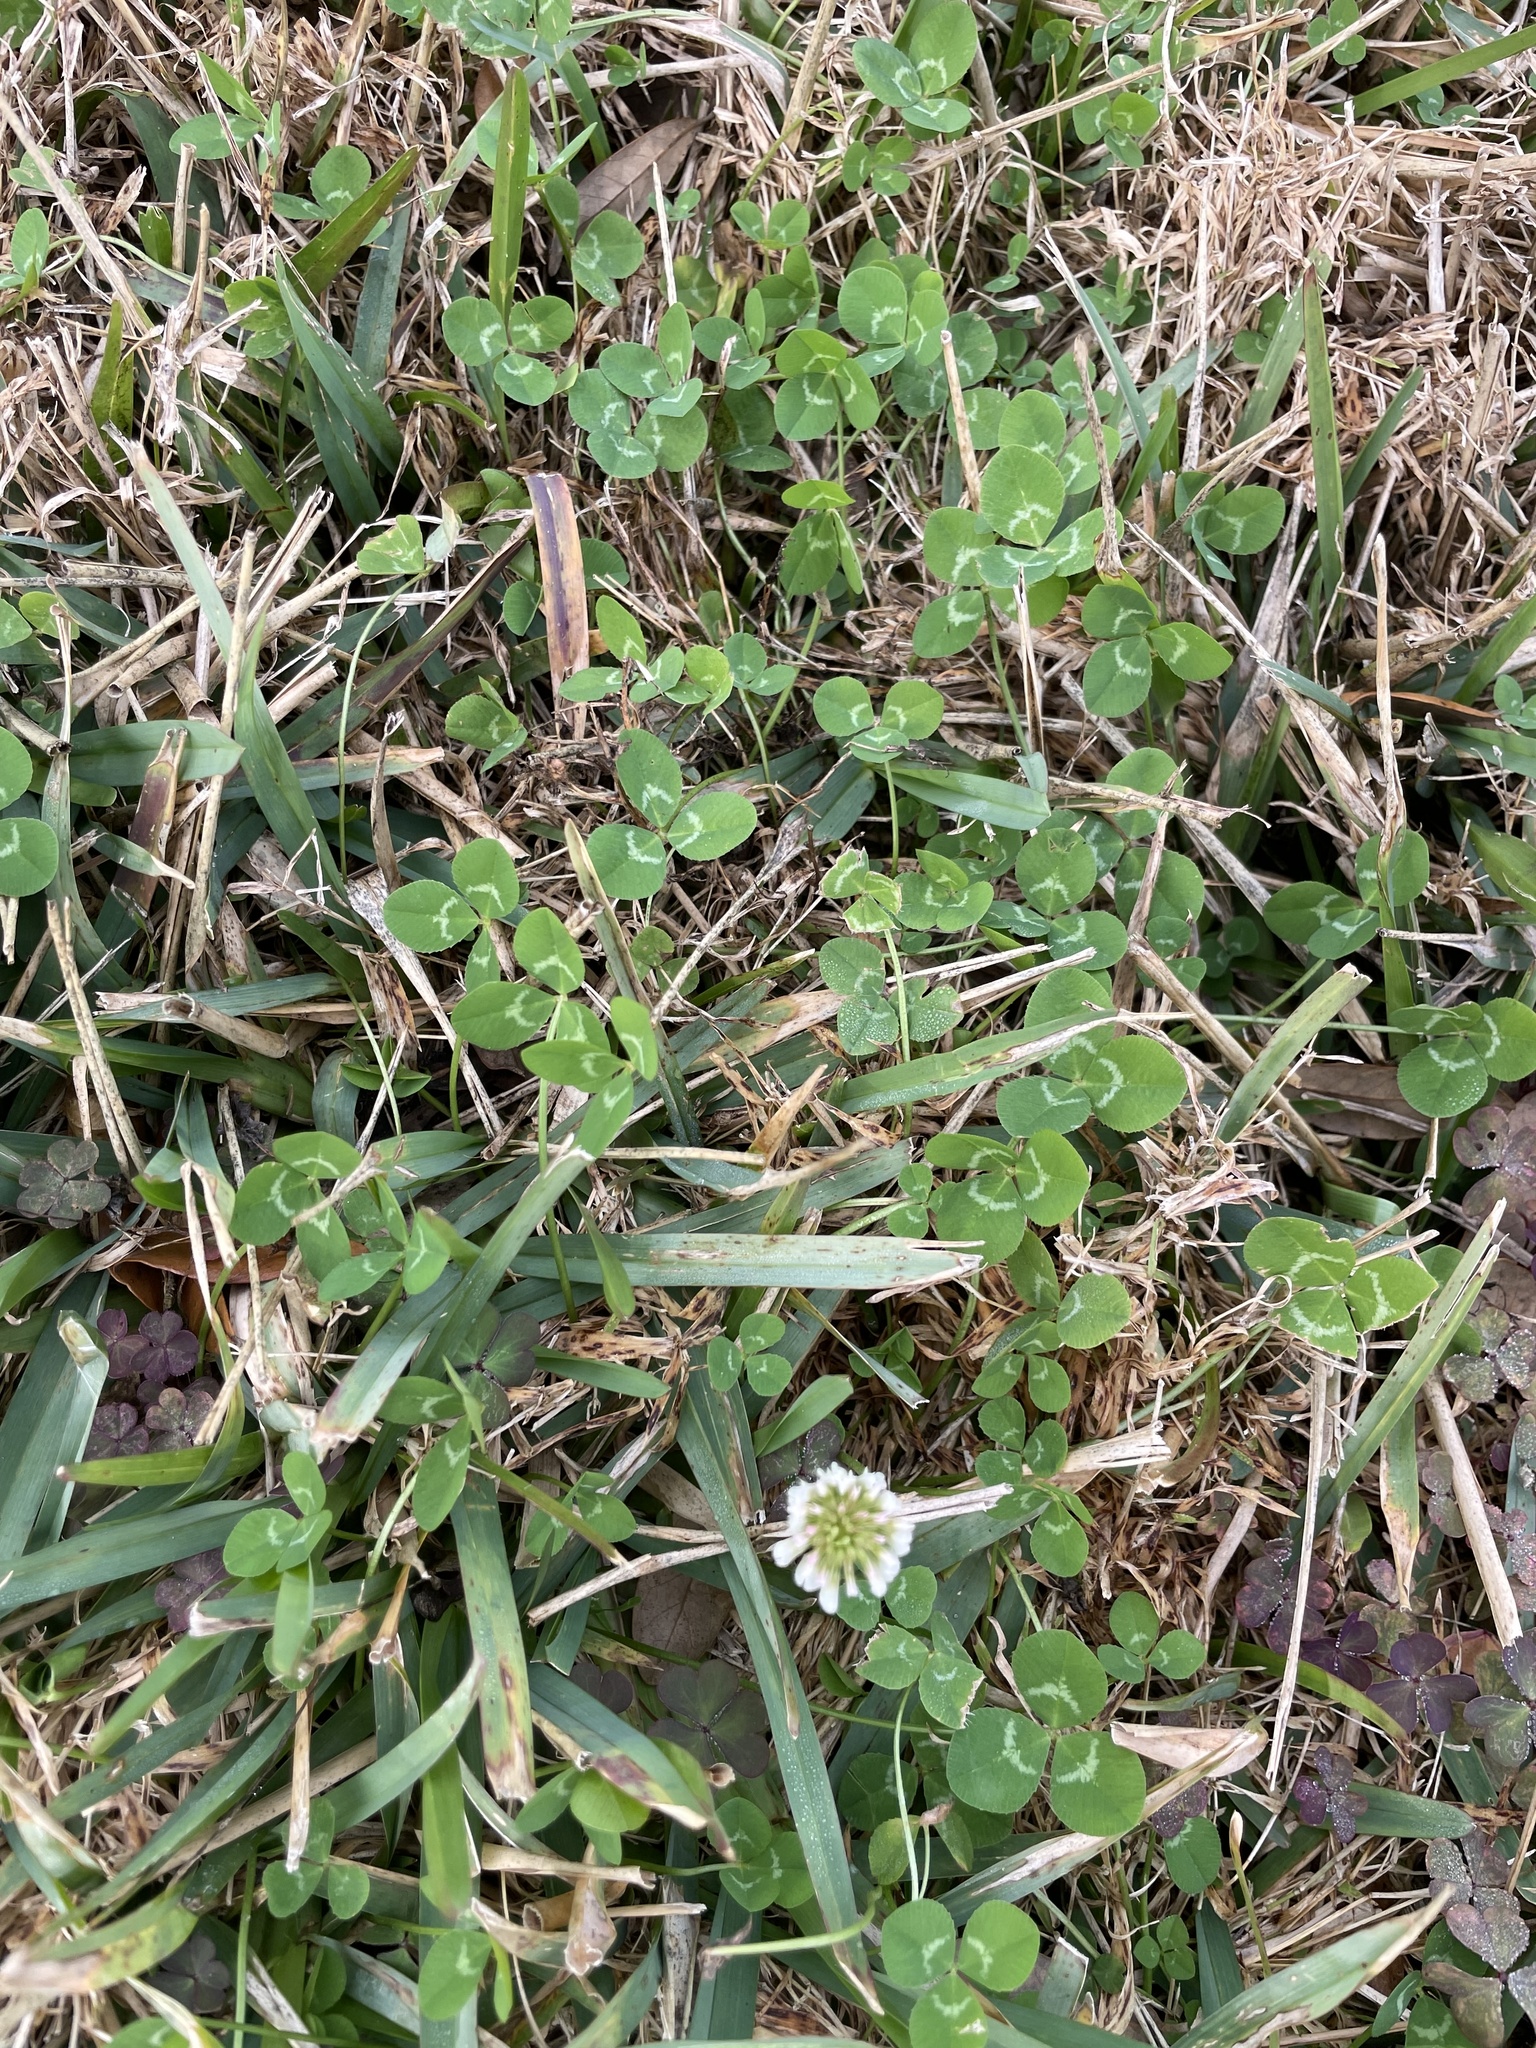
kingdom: Plantae
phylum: Tracheophyta
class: Magnoliopsida
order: Fabales
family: Fabaceae
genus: Trifolium
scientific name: Trifolium repens
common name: White clover
